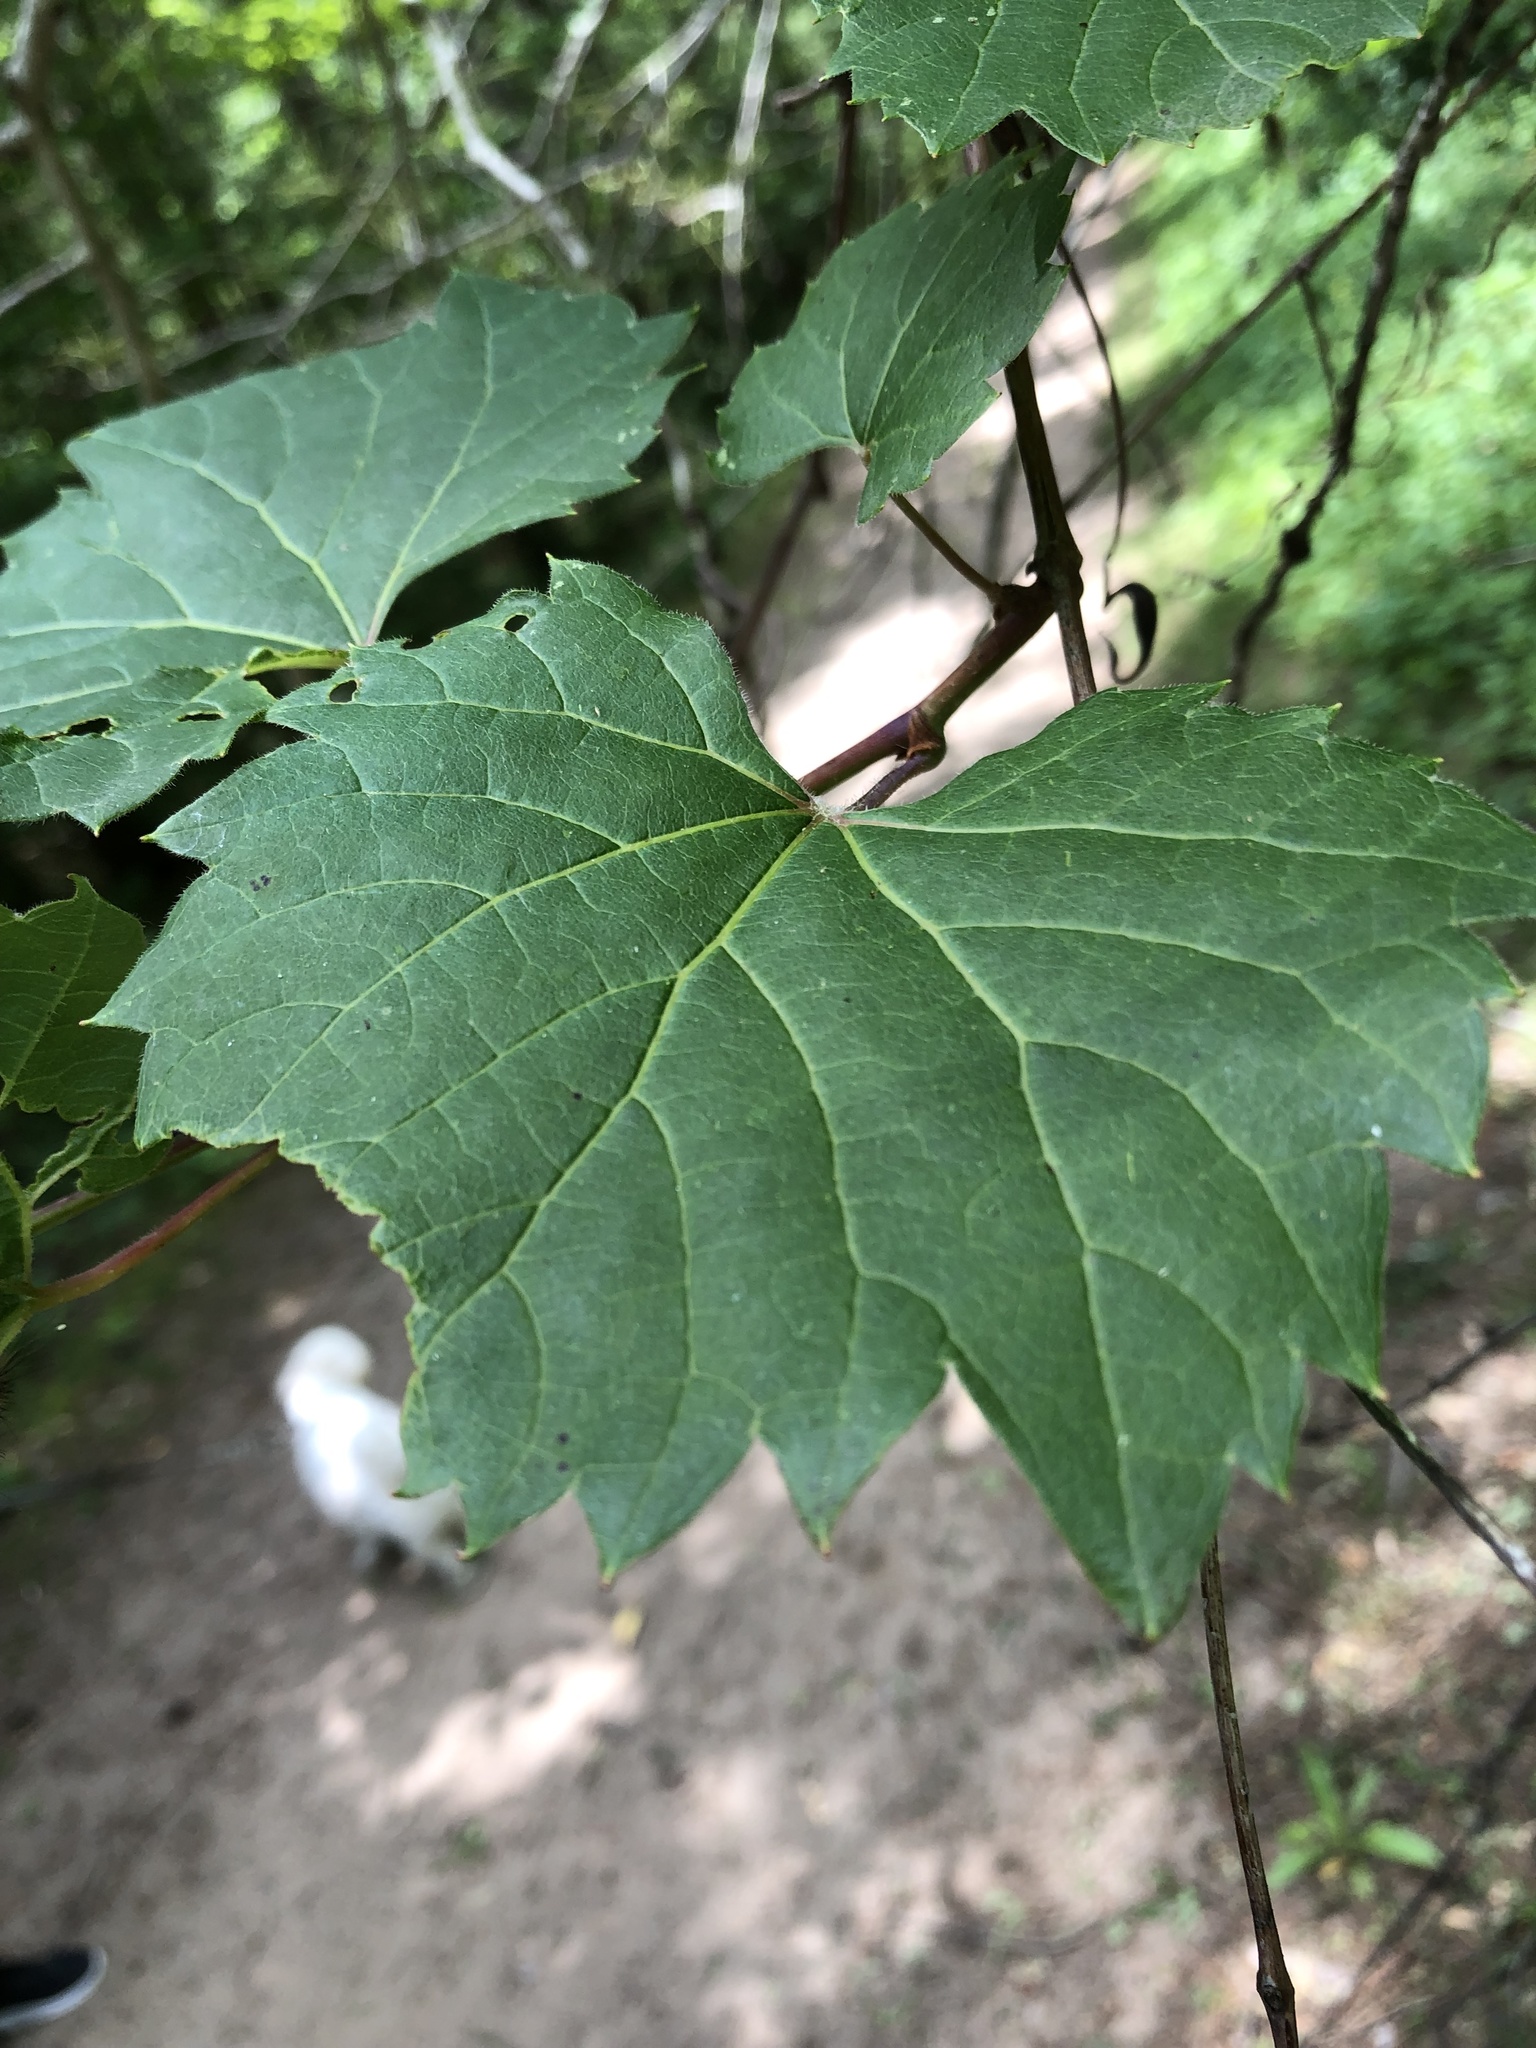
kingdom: Plantae
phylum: Tracheophyta
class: Magnoliopsida
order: Vitales
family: Vitaceae
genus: Vitis
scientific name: Vitis riparia
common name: Frost grape
